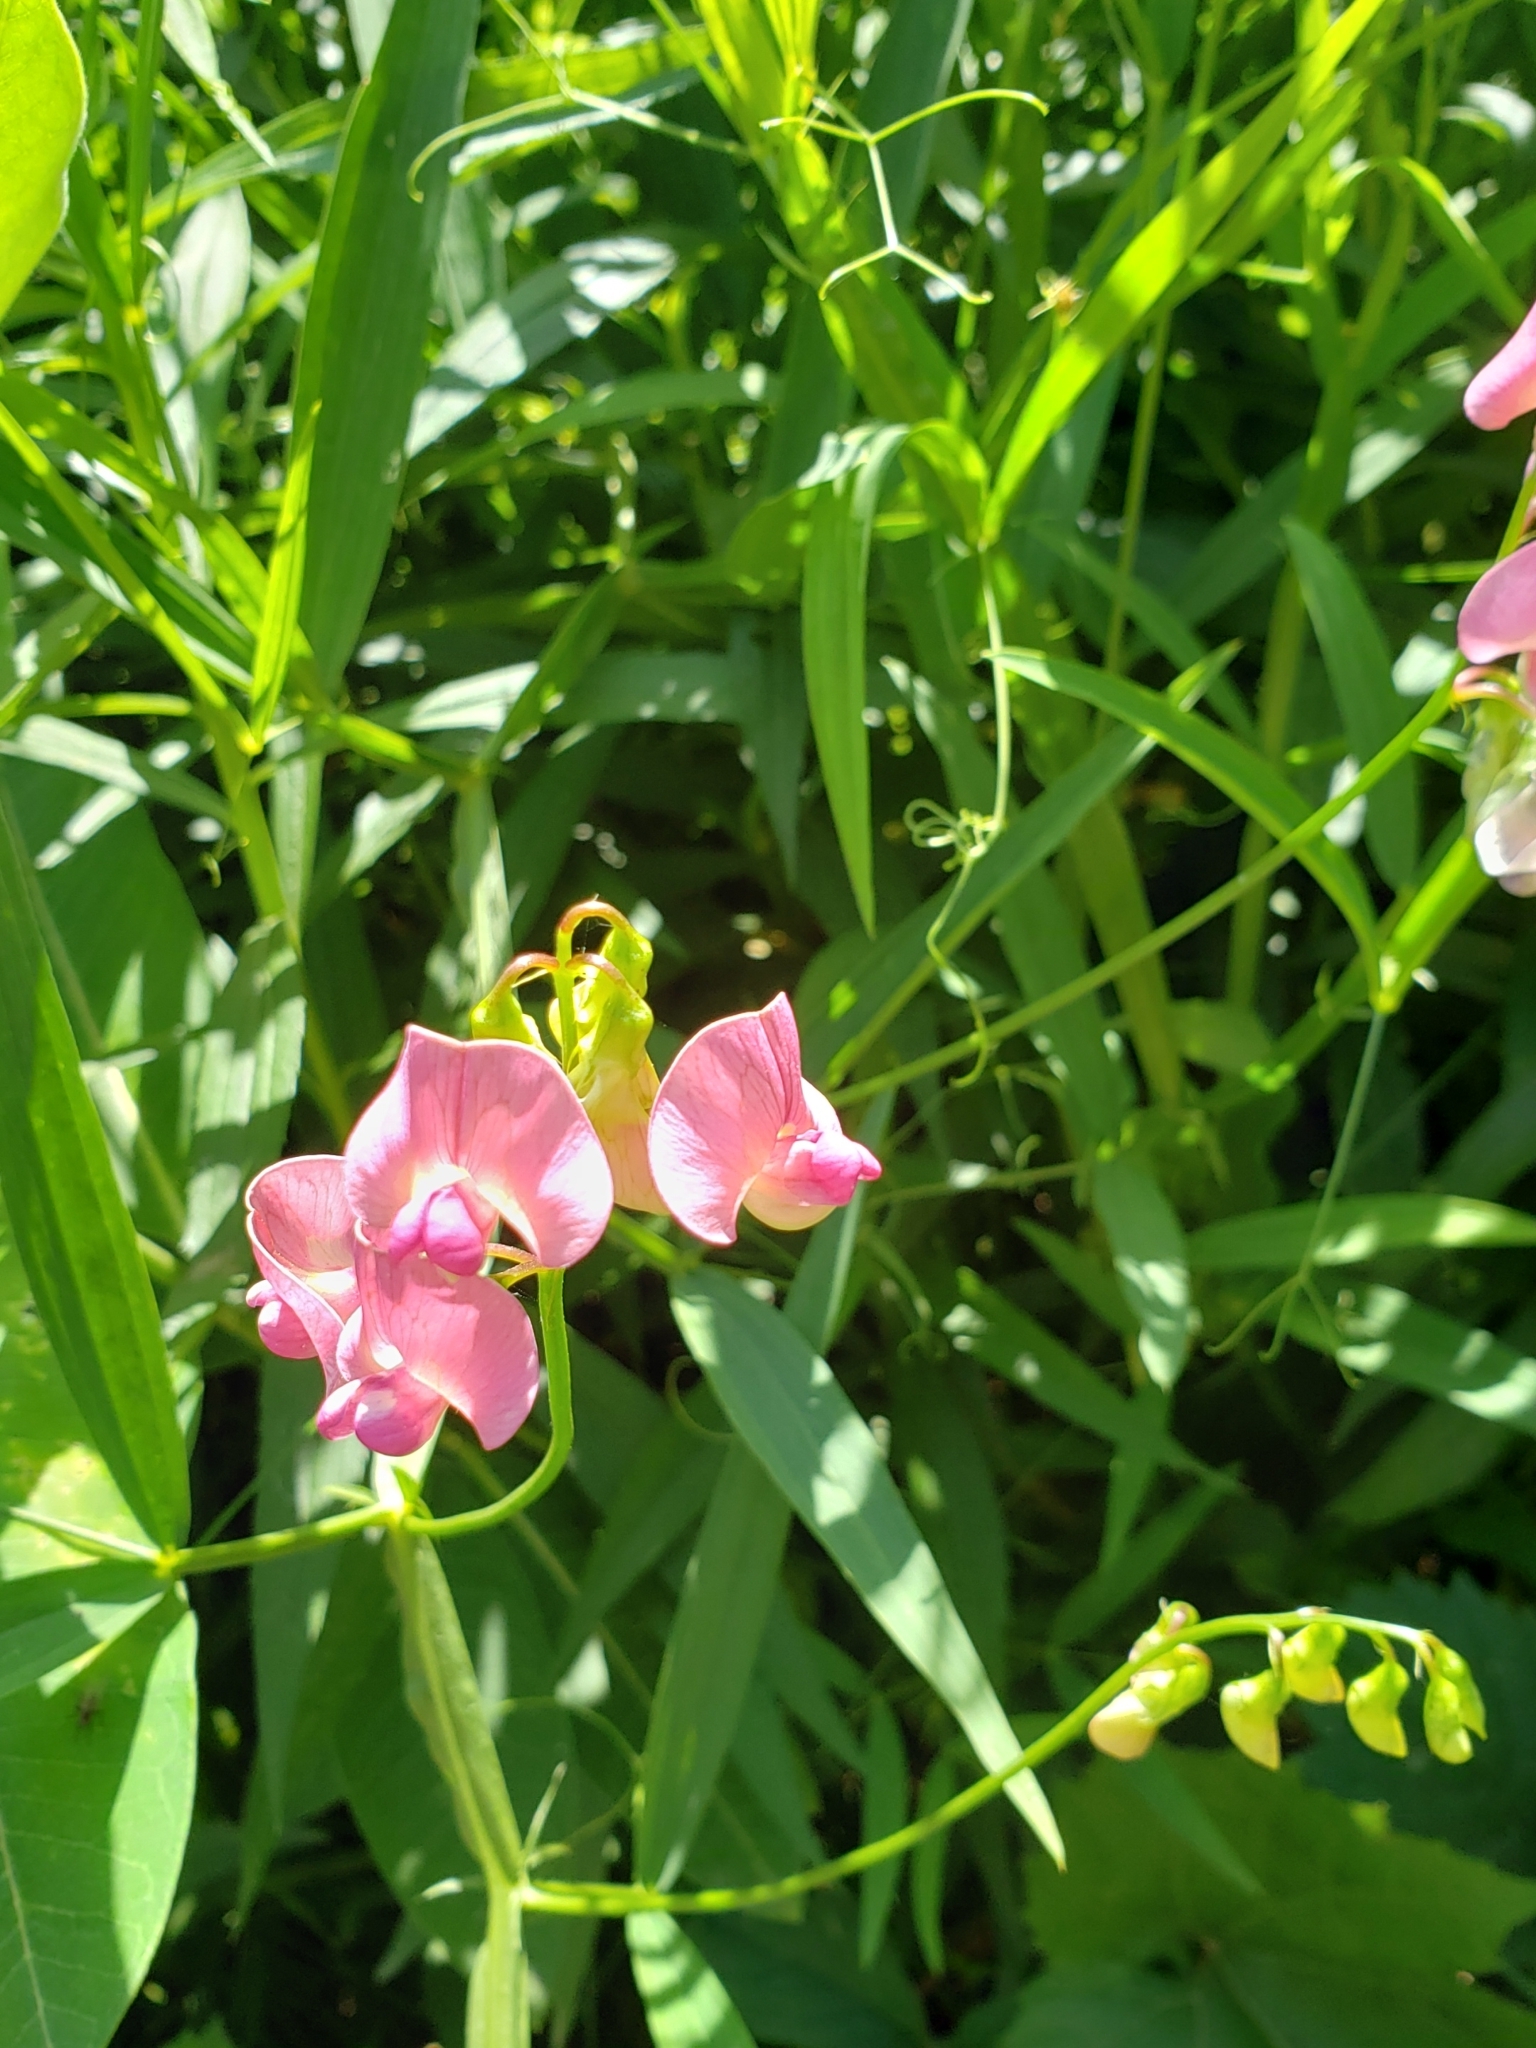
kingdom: Plantae
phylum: Tracheophyta
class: Magnoliopsida
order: Fabales
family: Fabaceae
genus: Lathyrus
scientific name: Lathyrus sylvestris
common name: Flat pea
